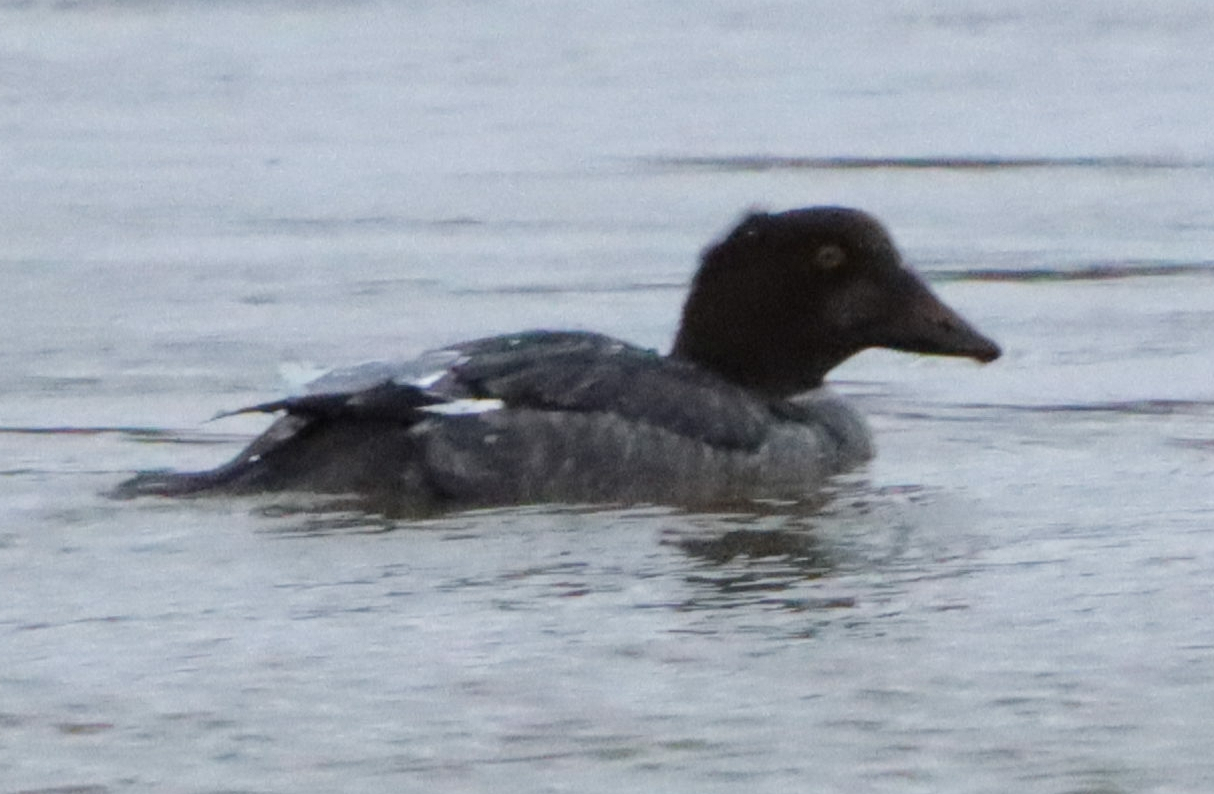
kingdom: Animalia
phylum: Chordata
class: Aves
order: Anseriformes
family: Anatidae
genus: Bucephala
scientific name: Bucephala clangula
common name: Common goldeneye
